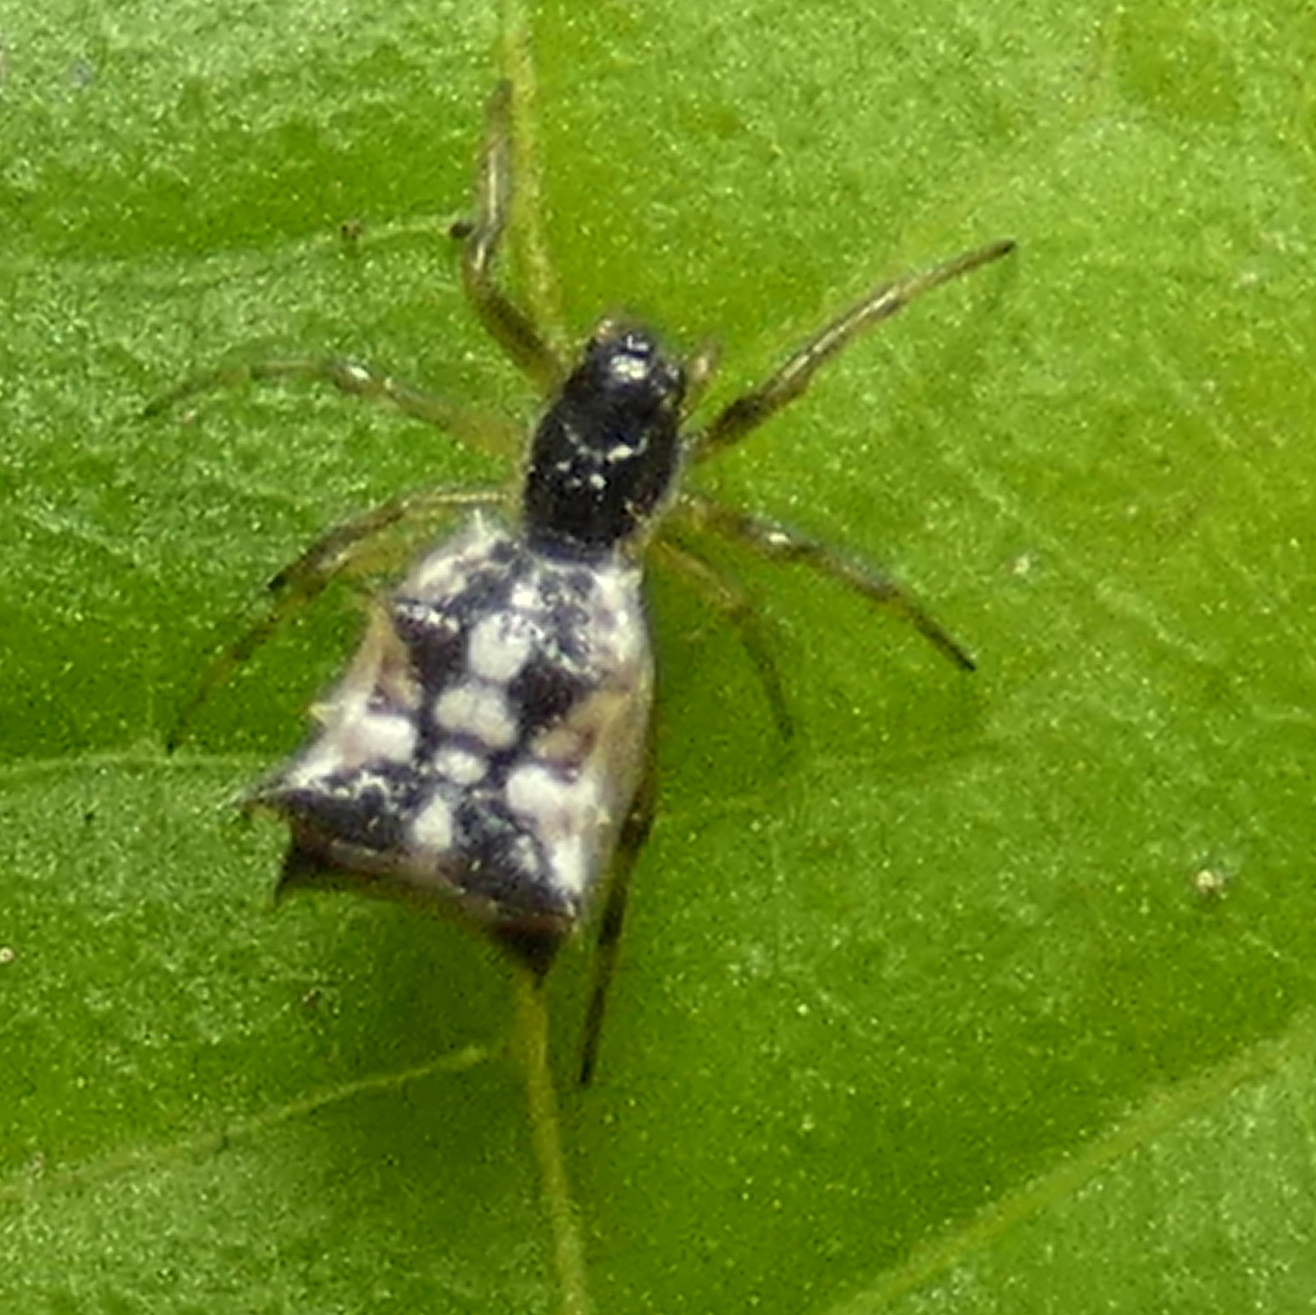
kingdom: Animalia
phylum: Arthropoda
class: Arachnida
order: Araneae
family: Araneidae
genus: Micrathena
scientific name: Micrathena picta
